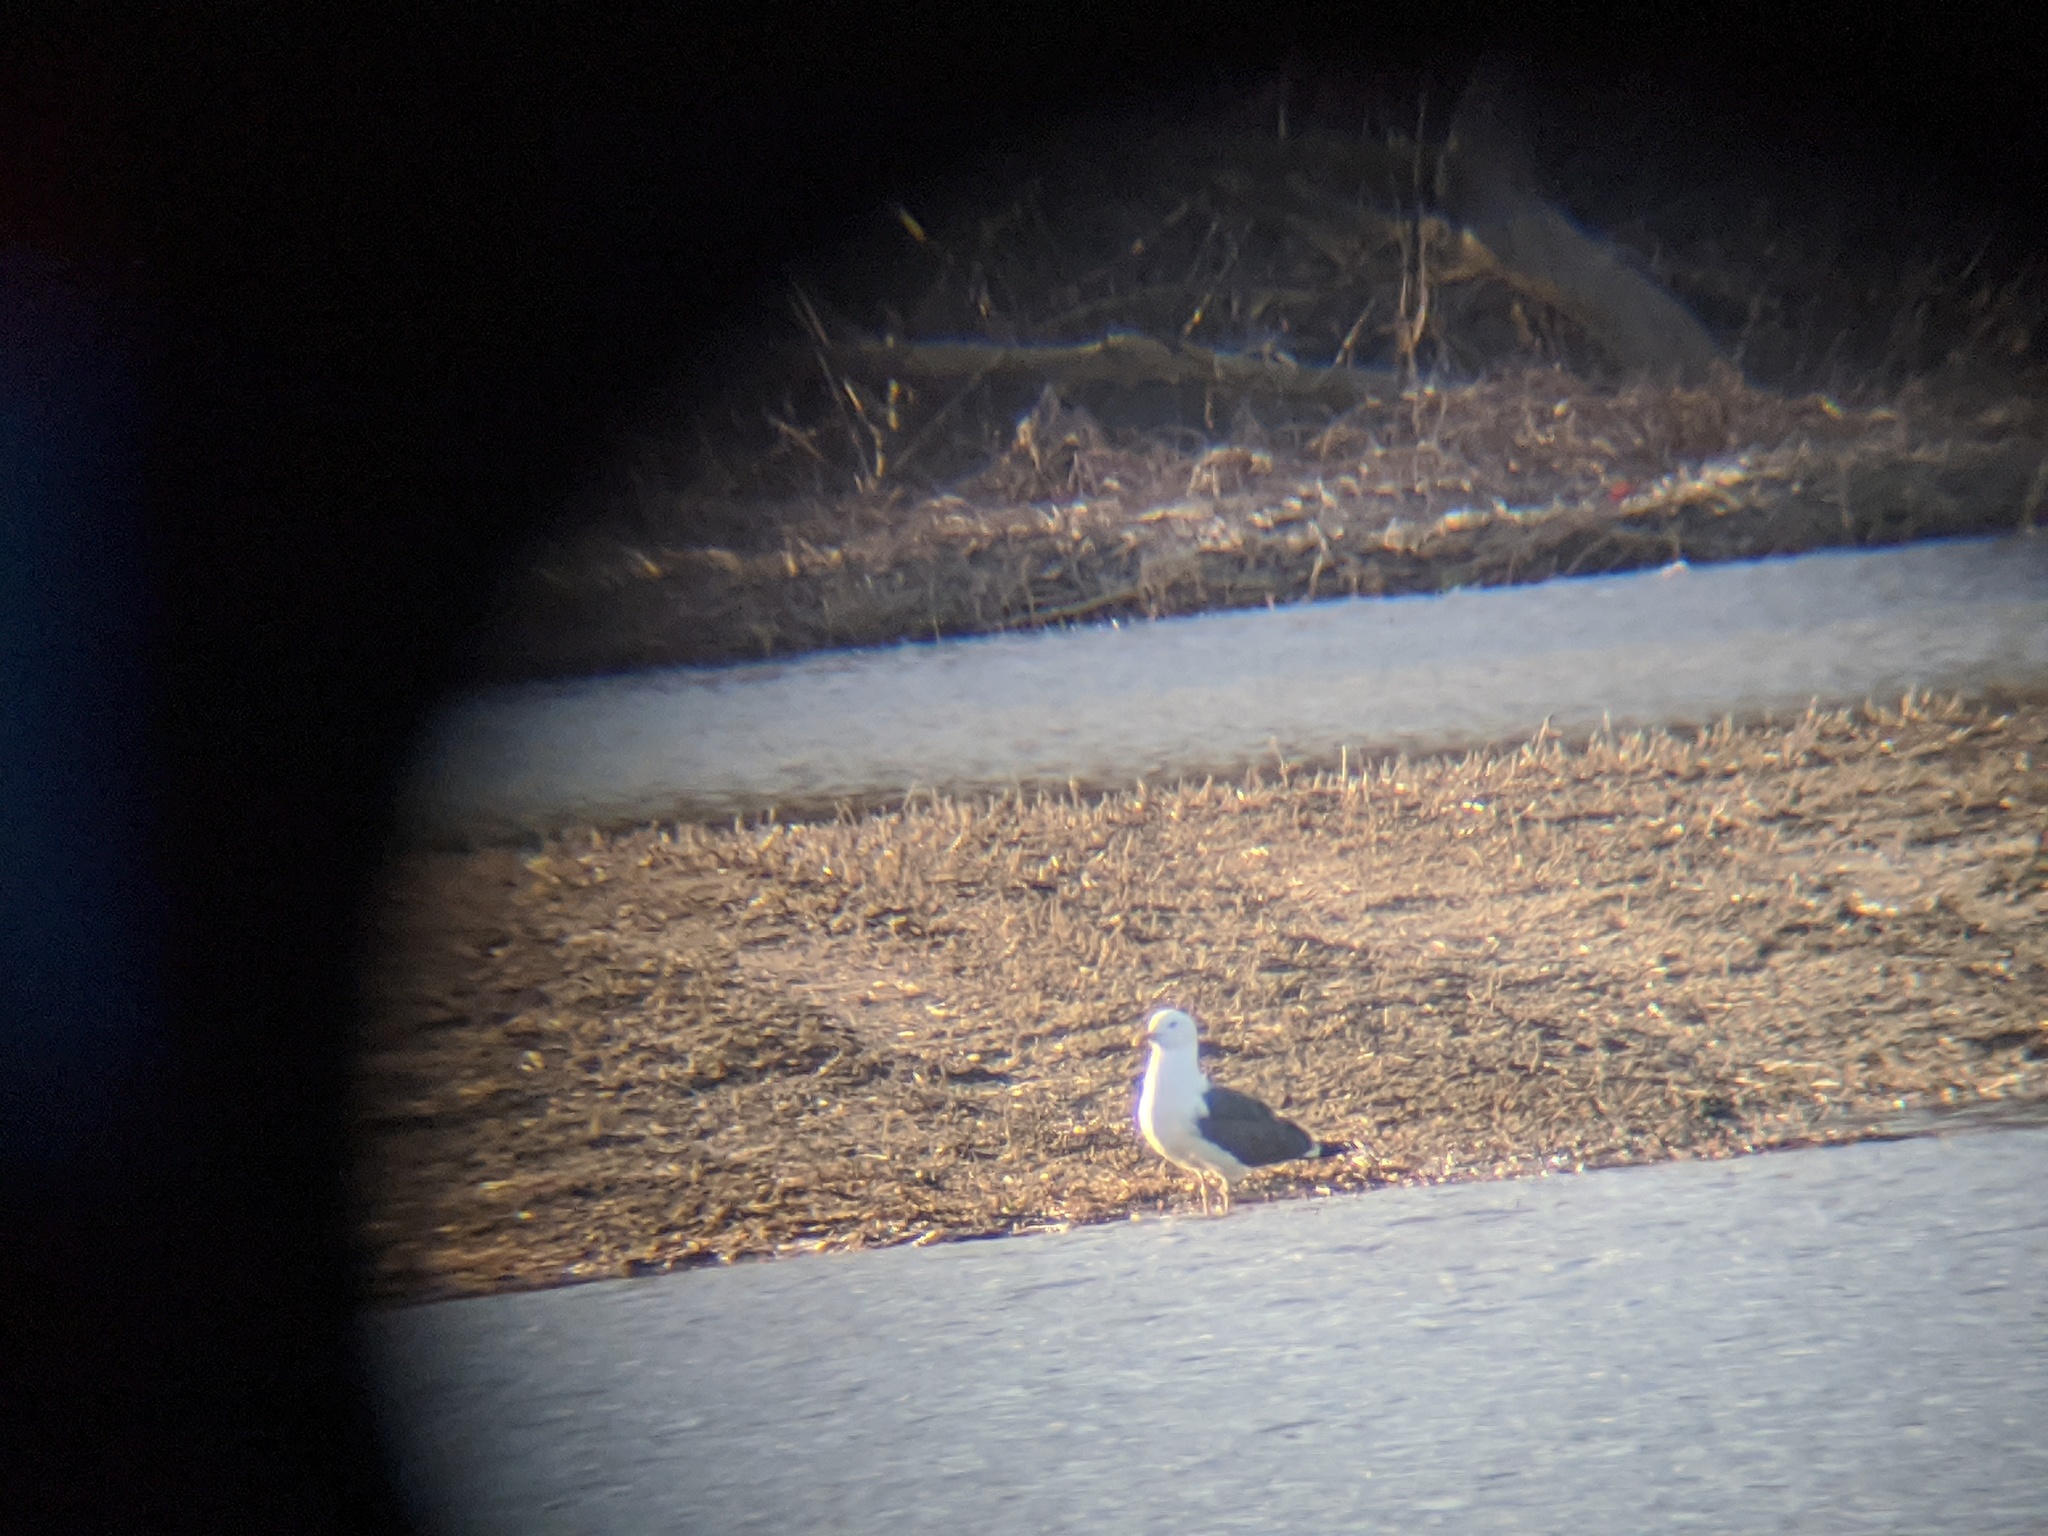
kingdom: Animalia
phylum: Chordata
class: Aves
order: Charadriiformes
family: Laridae
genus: Larus
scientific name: Larus fuscus
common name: Lesser black-backed gull
